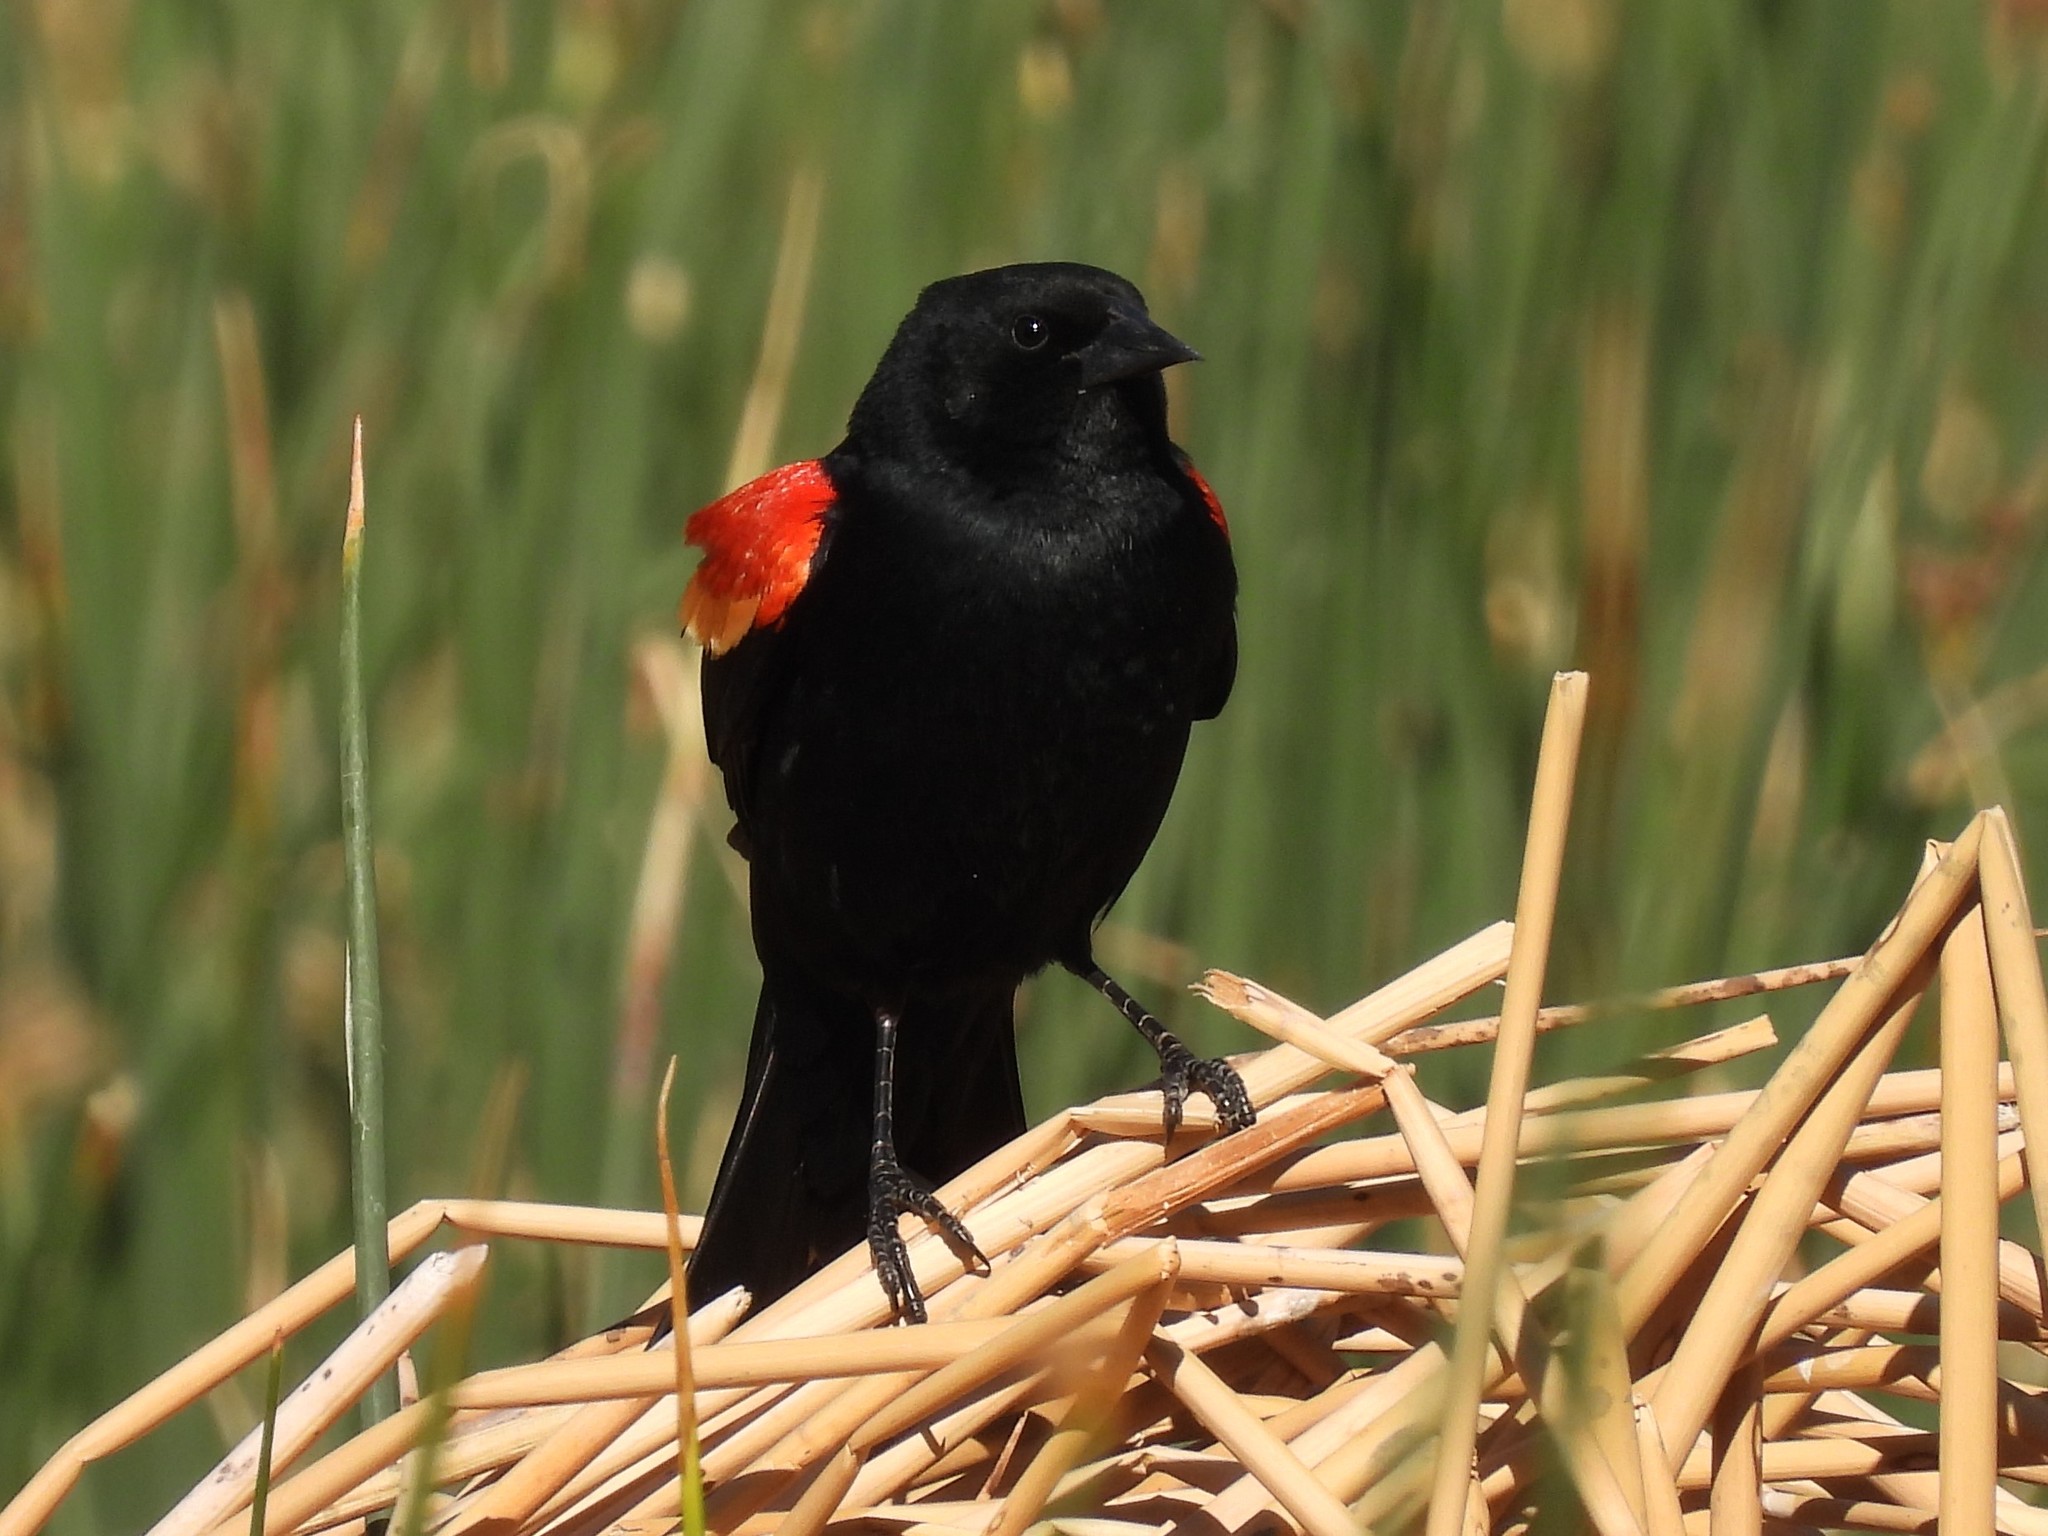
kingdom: Animalia
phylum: Chordata
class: Aves
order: Passeriformes
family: Icteridae
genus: Agelaius
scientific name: Agelaius phoeniceus
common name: Red-winged blackbird
